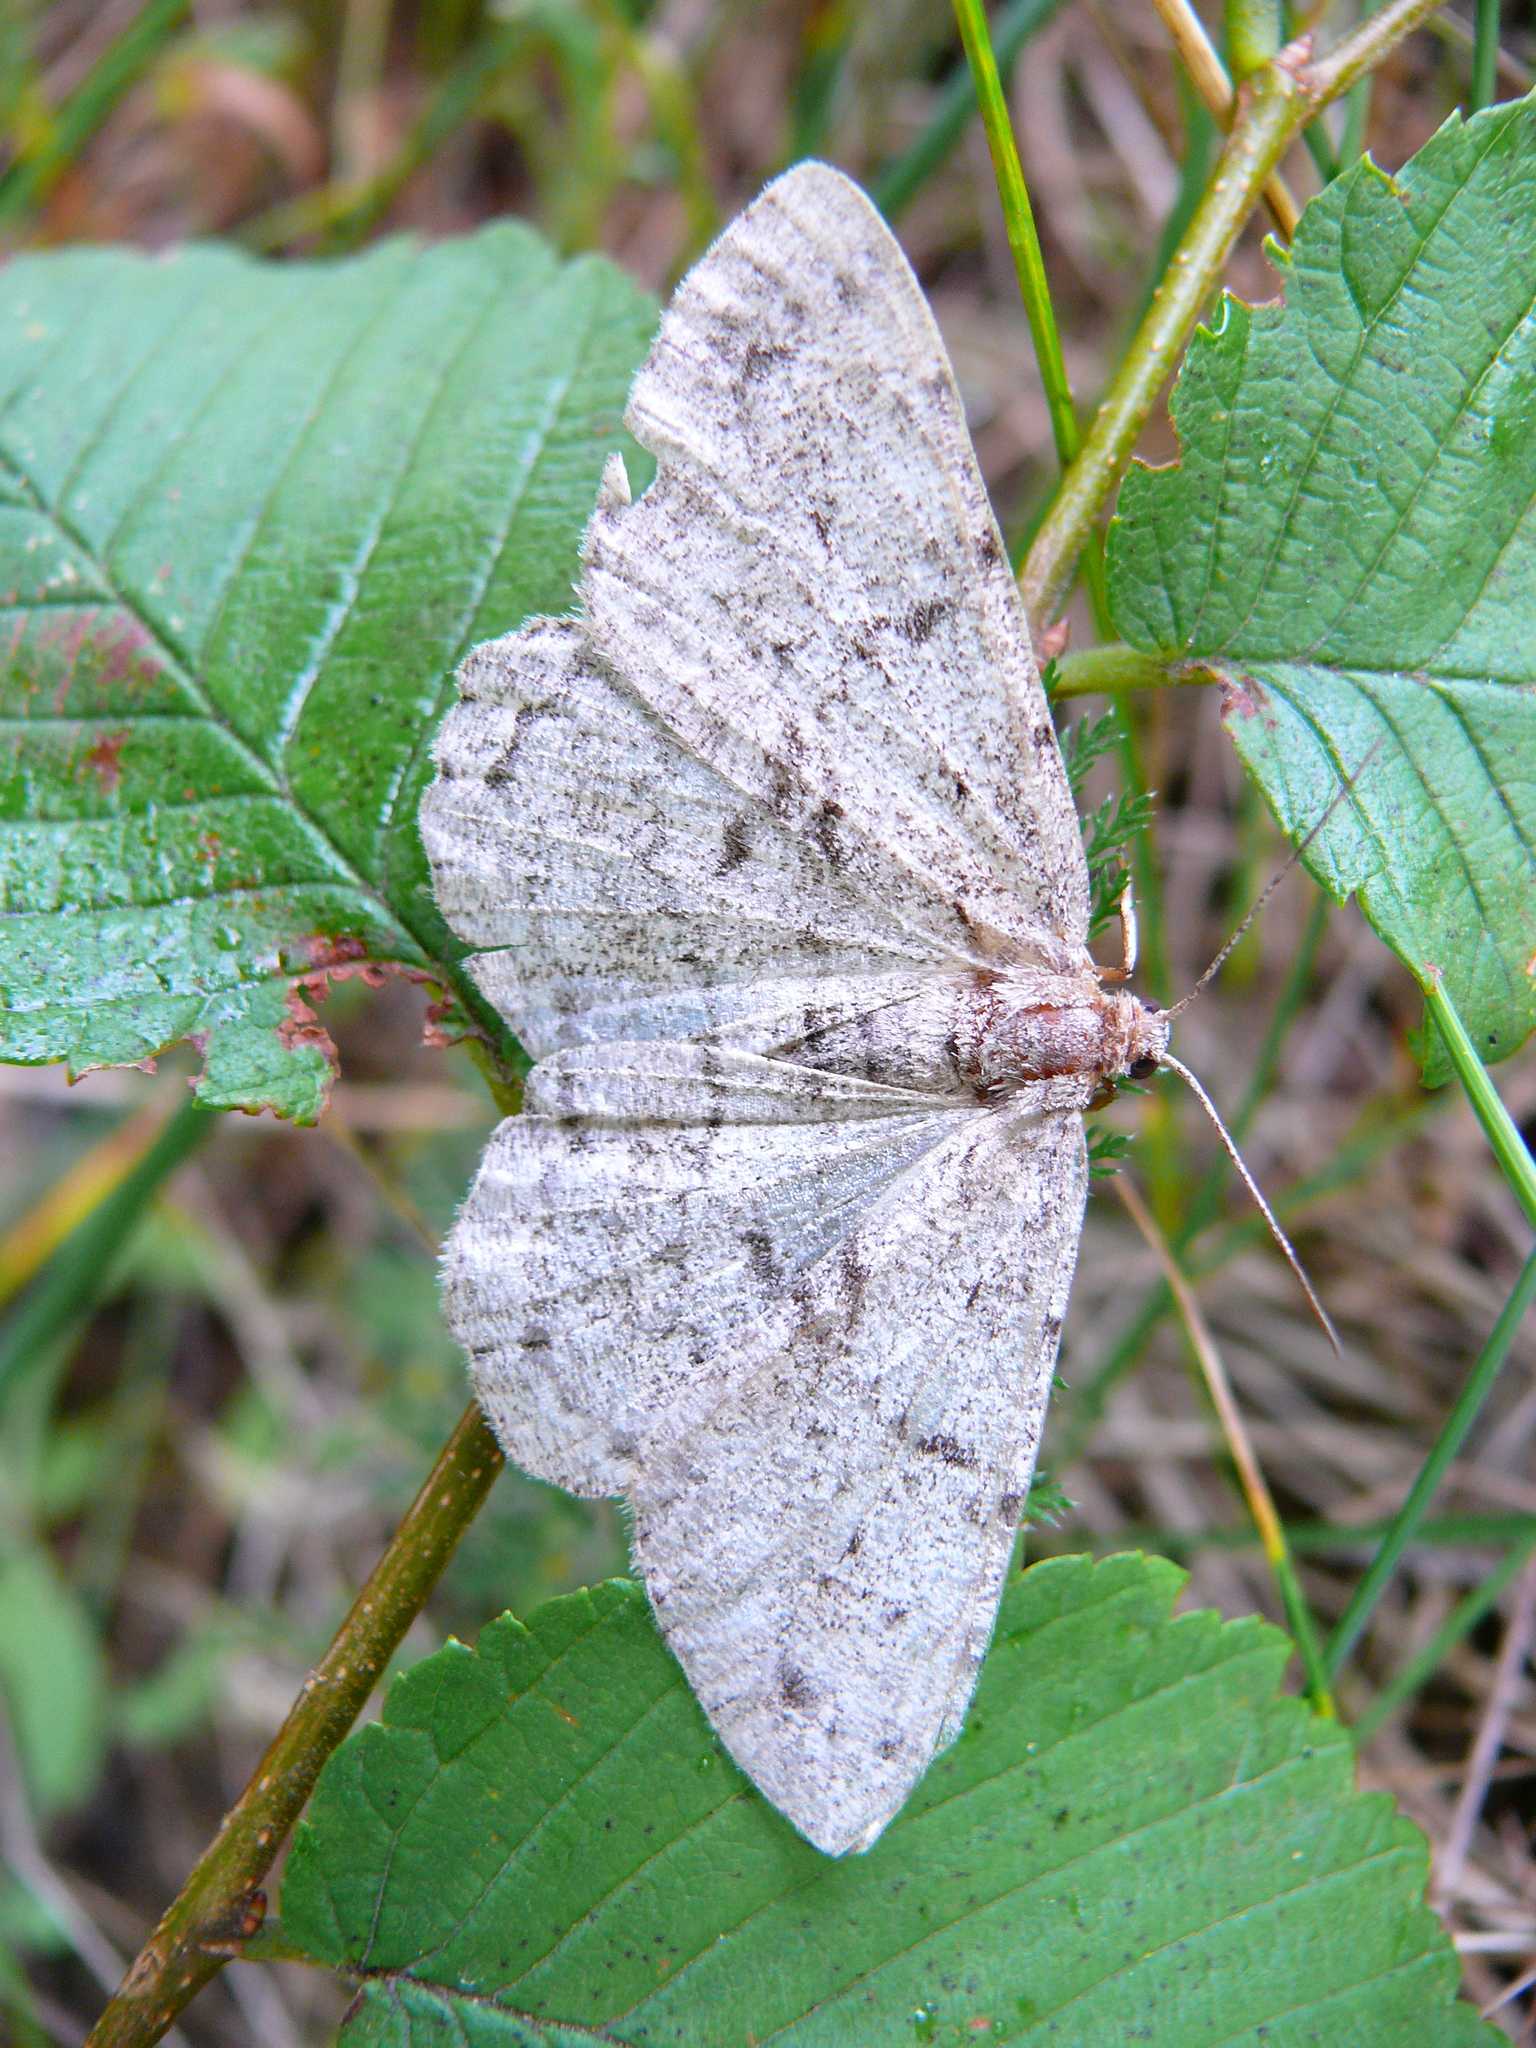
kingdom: Animalia
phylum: Arthropoda
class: Insecta
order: Lepidoptera
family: Geometridae
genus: Hypomecis
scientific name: Hypomecis roboraria
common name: Great oak beauty
